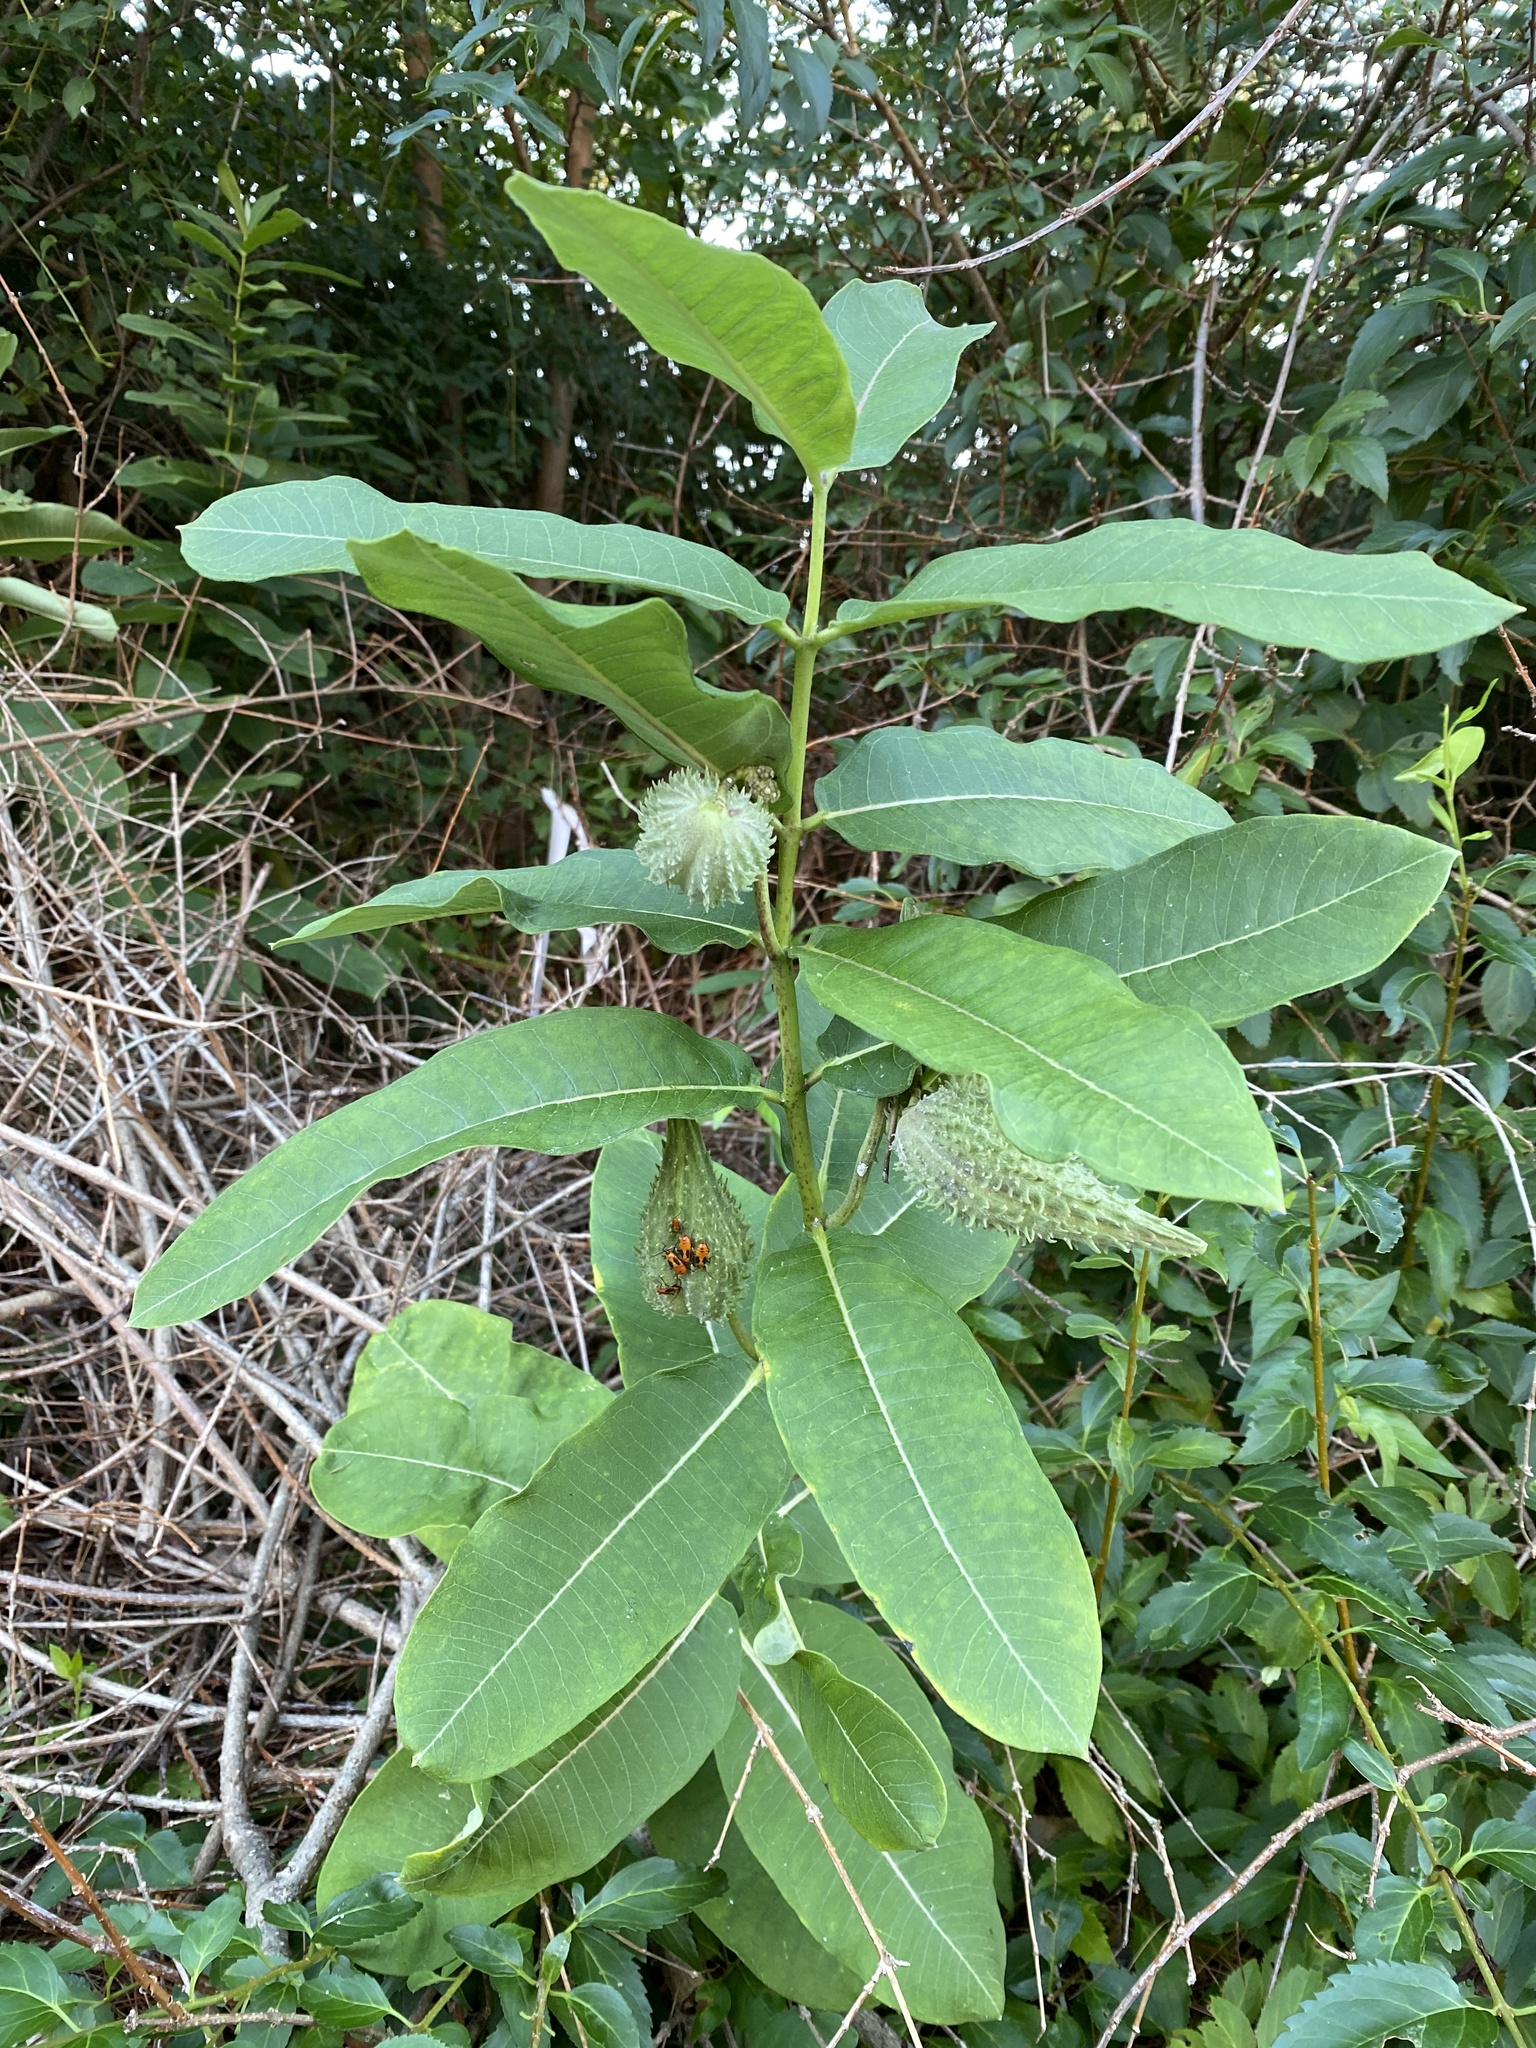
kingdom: Plantae
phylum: Tracheophyta
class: Magnoliopsida
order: Gentianales
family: Apocynaceae
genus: Asclepias
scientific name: Asclepias syriaca
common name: Common milkweed
